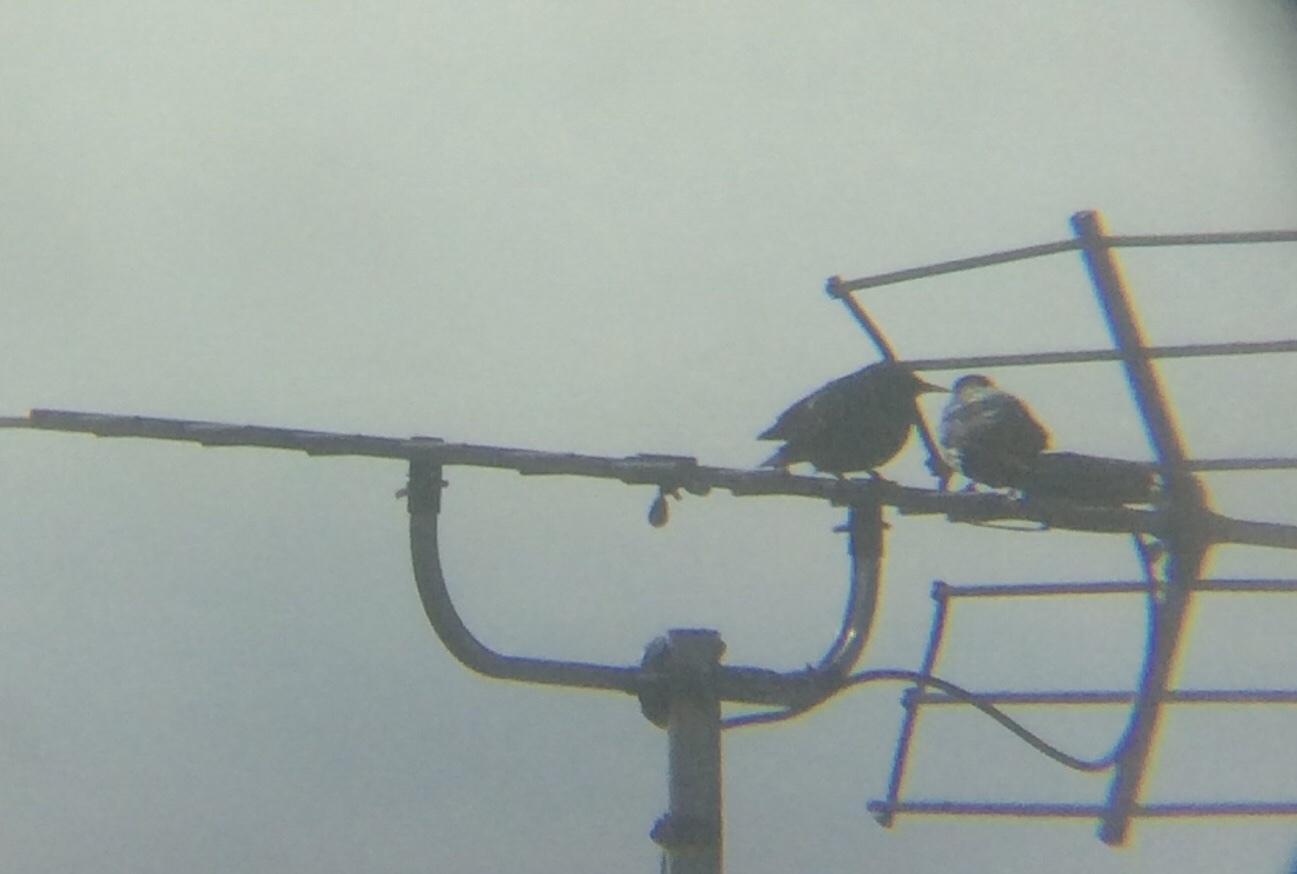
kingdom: Animalia
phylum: Chordata
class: Aves
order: Passeriformes
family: Sturnidae
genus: Sturnus
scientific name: Sturnus vulgaris
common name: Common starling
